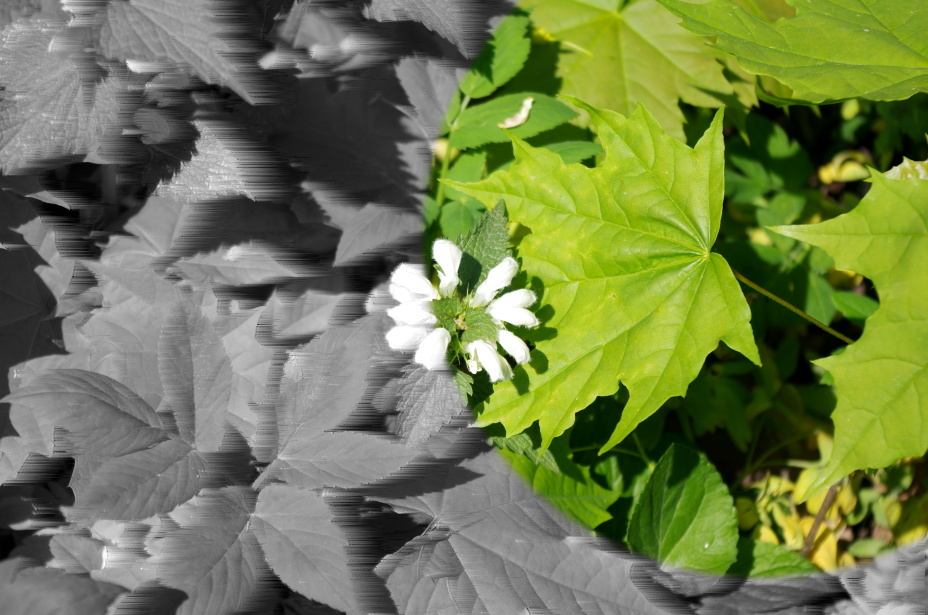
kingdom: Plantae
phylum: Tracheophyta
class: Magnoliopsida
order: Sapindales
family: Sapindaceae
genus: Acer
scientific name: Acer platanoides
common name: Norway maple
